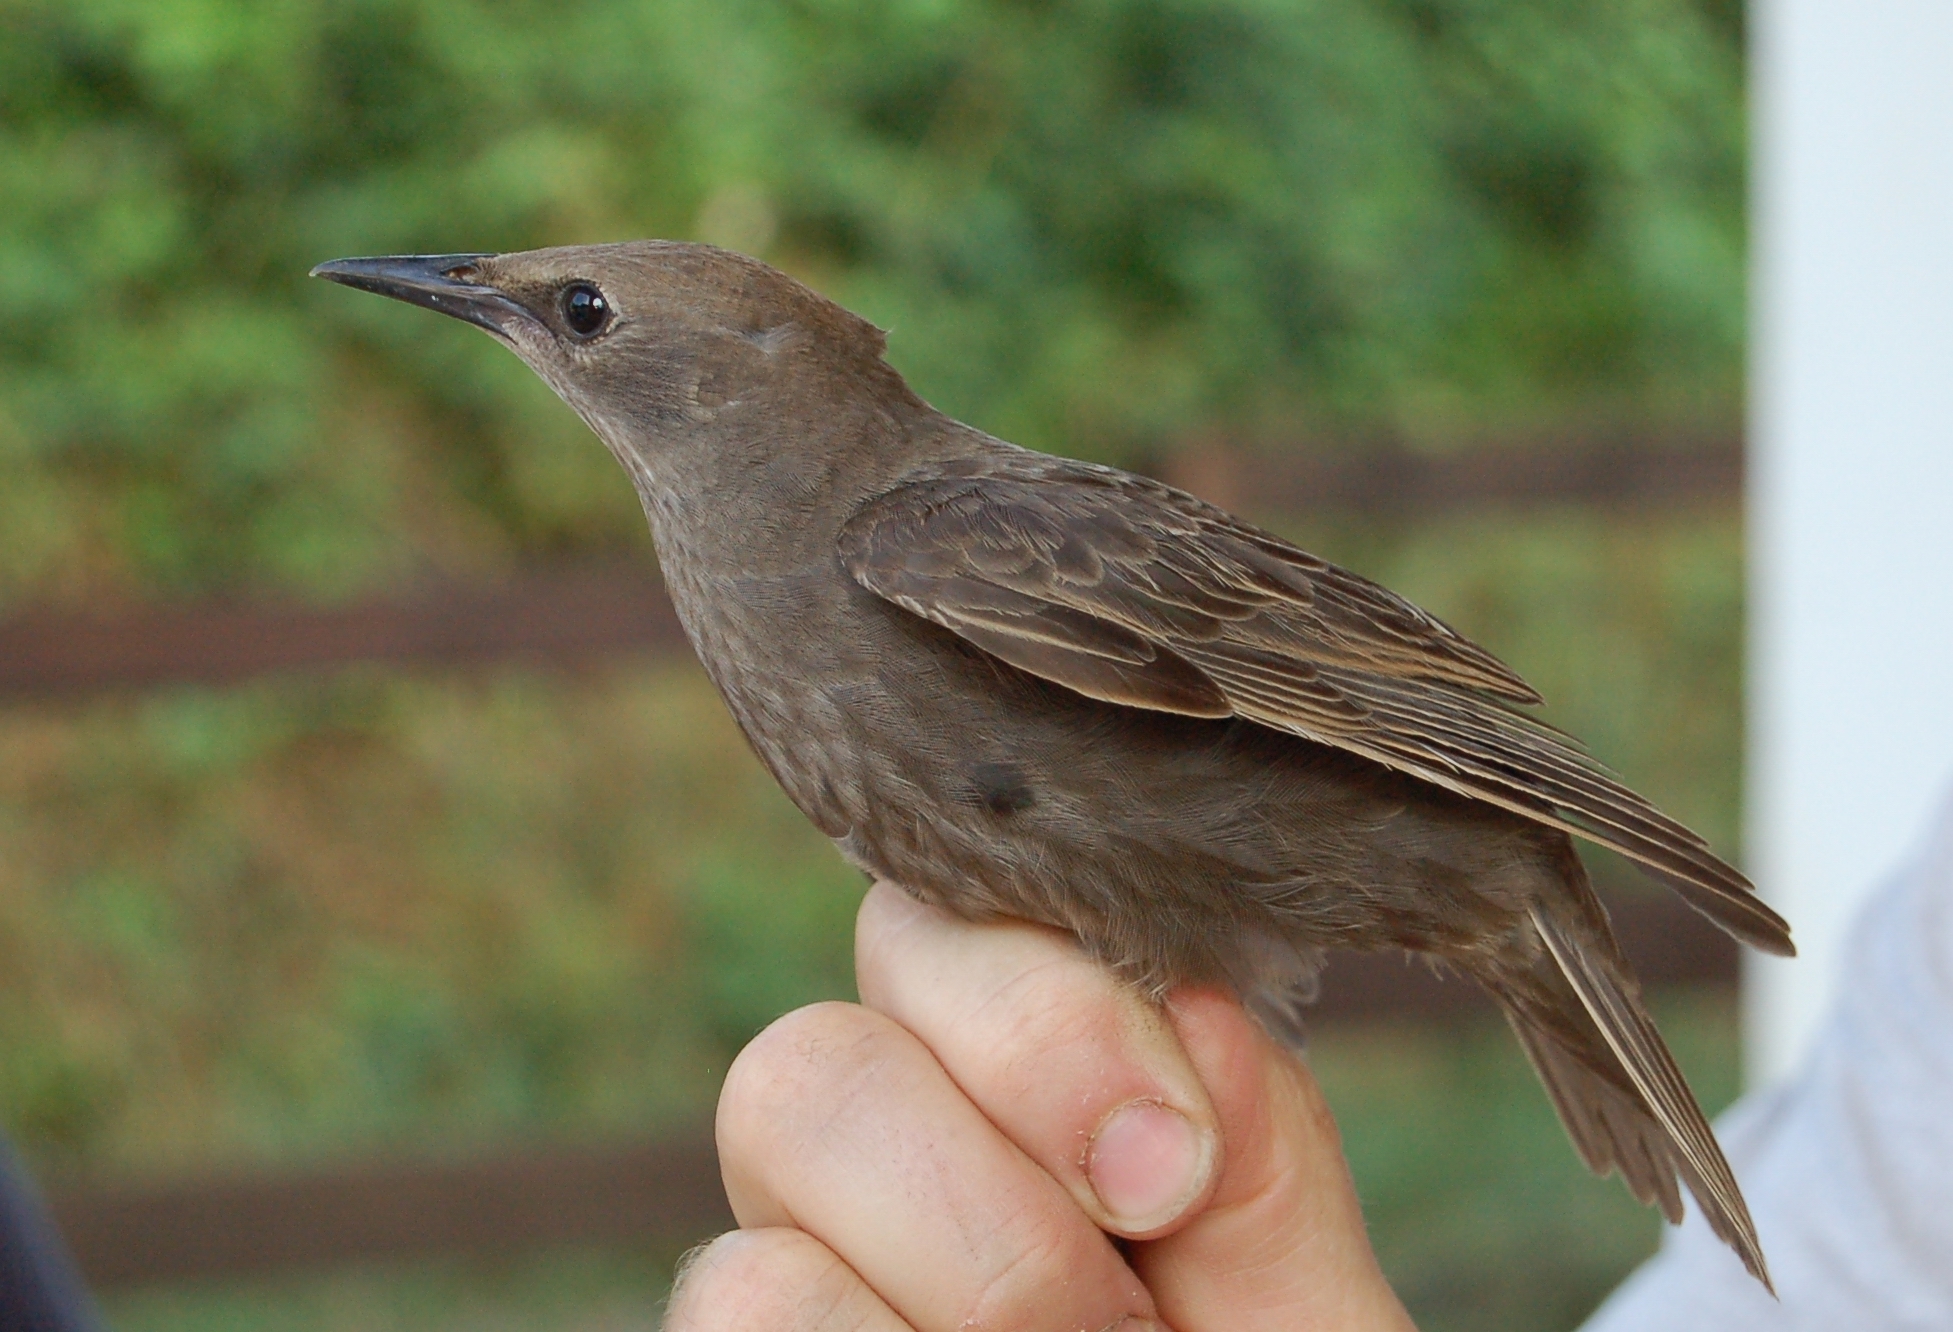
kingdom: Animalia
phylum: Chordata
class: Aves
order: Passeriformes
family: Sturnidae
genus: Sturnus
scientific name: Sturnus vulgaris
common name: Common starling
